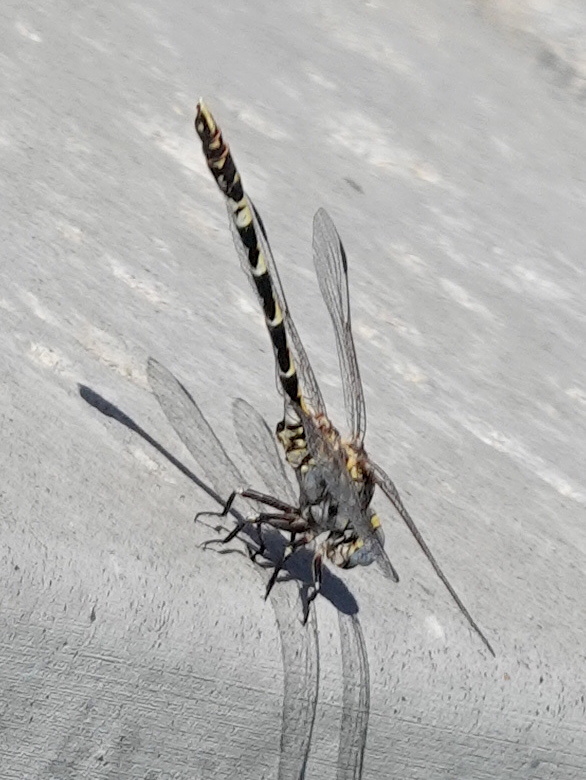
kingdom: Animalia
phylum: Arthropoda
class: Insecta
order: Odonata
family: Gomphidae
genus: Progomphus
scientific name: Progomphus borealis
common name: Gray sanddragon
